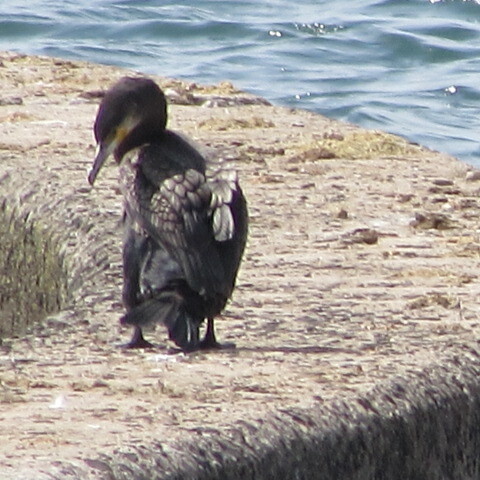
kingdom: Animalia
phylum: Chordata
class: Aves
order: Suliformes
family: Phalacrocoracidae
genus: Phalacrocorax
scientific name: Phalacrocorax carbo
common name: Great cormorant
